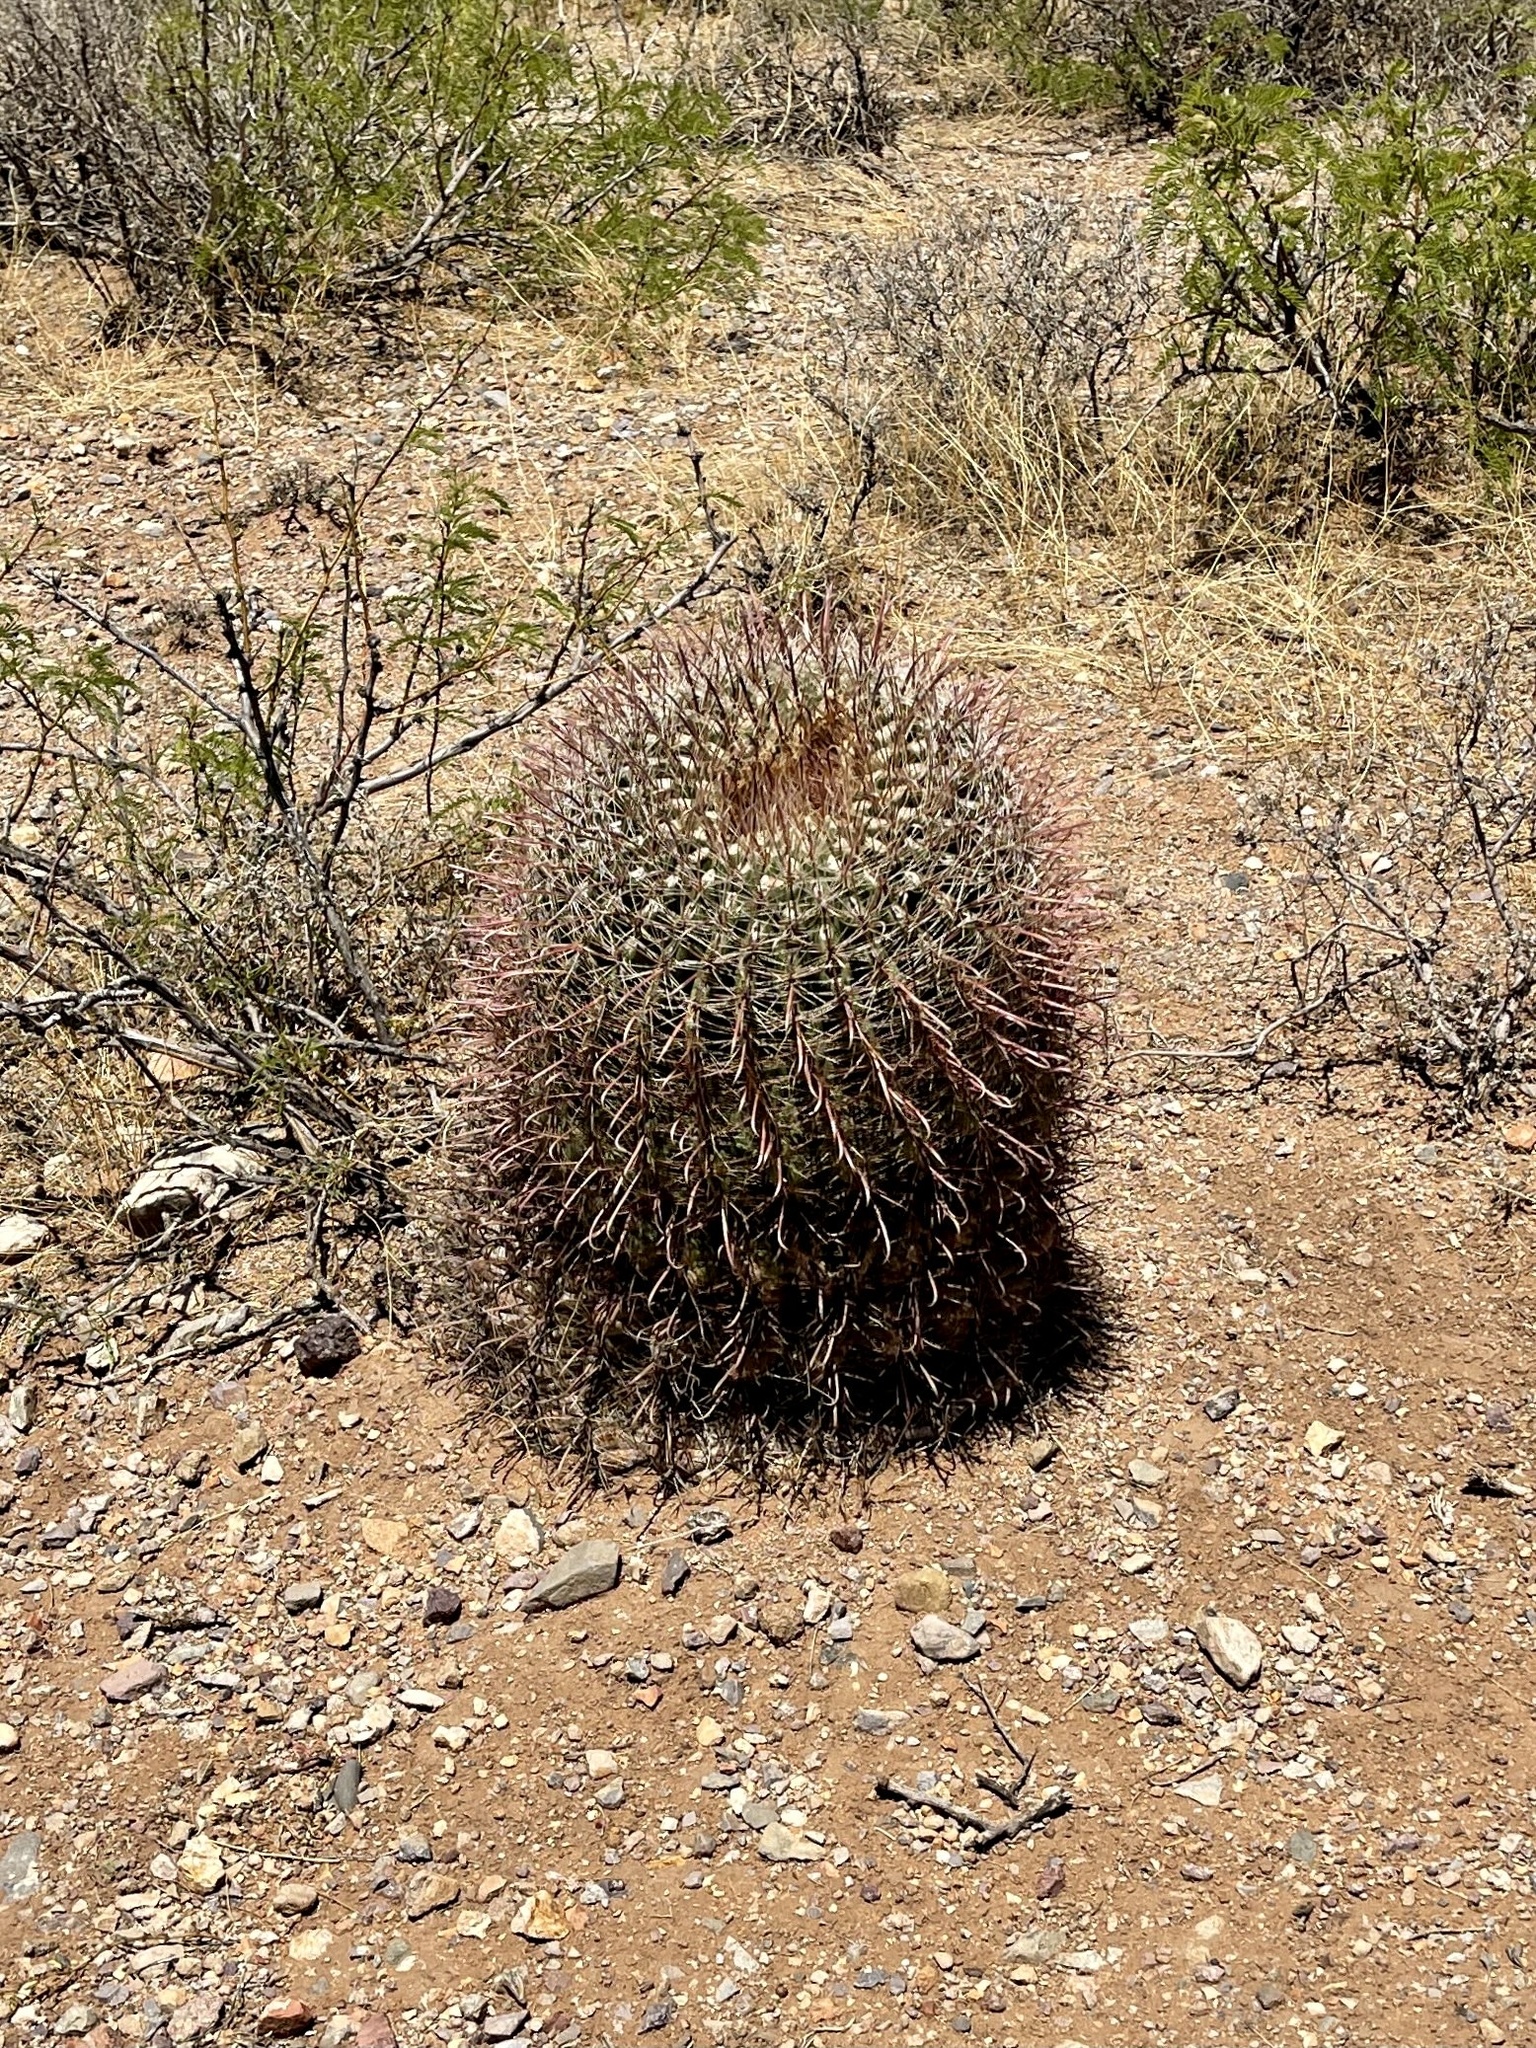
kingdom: Plantae
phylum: Tracheophyta
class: Magnoliopsida
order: Caryophyllales
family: Cactaceae
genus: Ferocactus
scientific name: Ferocactus wislizeni
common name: Candy barrel cactus
